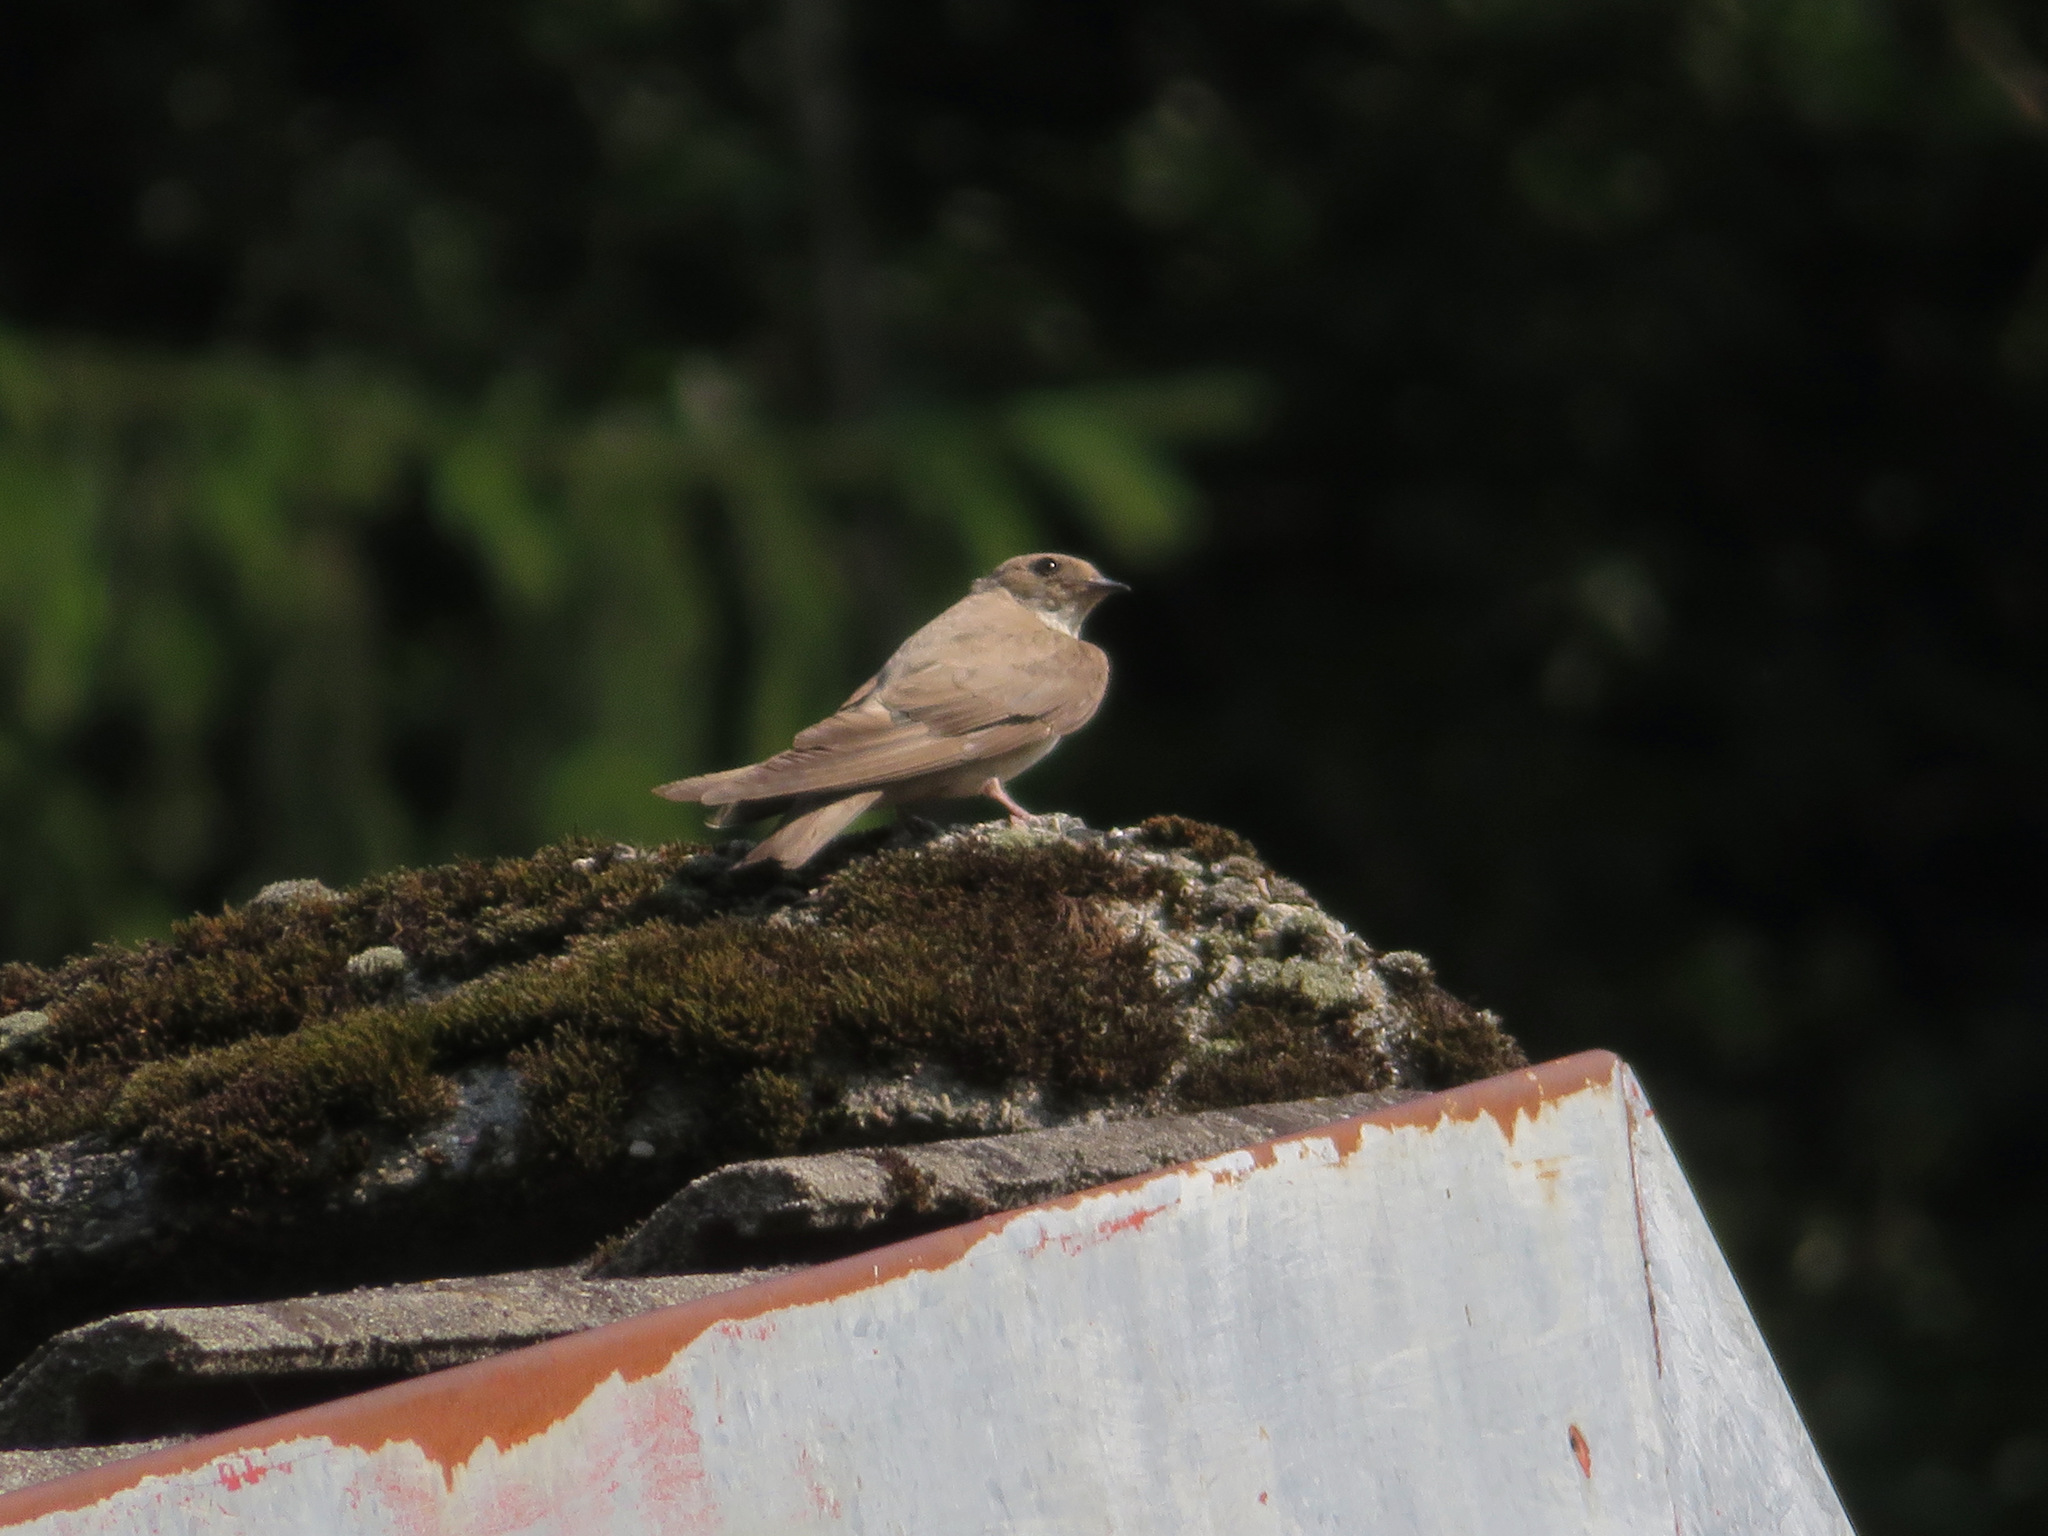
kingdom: Animalia
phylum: Chordata
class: Aves
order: Passeriformes
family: Hirundinidae
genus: Ptyonoprogne
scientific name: Ptyonoprogne rupestris
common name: Eurasian crag martin
